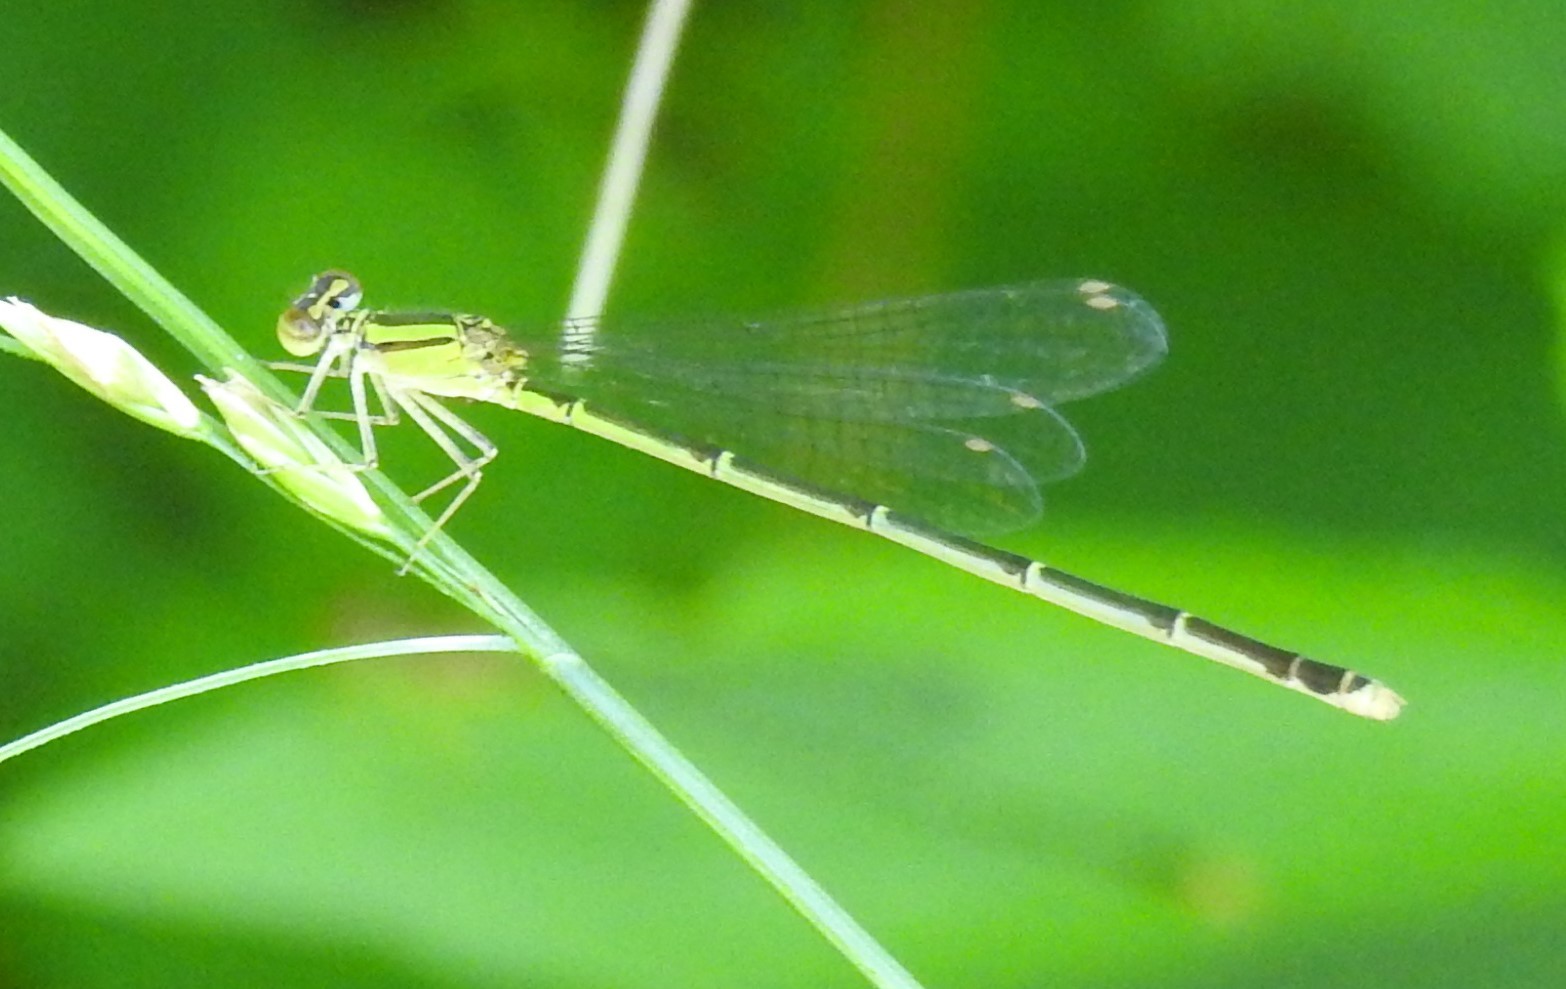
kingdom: Animalia
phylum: Arthropoda
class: Insecta
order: Odonata
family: Coenagrionidae
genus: Enallagma
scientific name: Enallagma signatum
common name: Orange bluet
